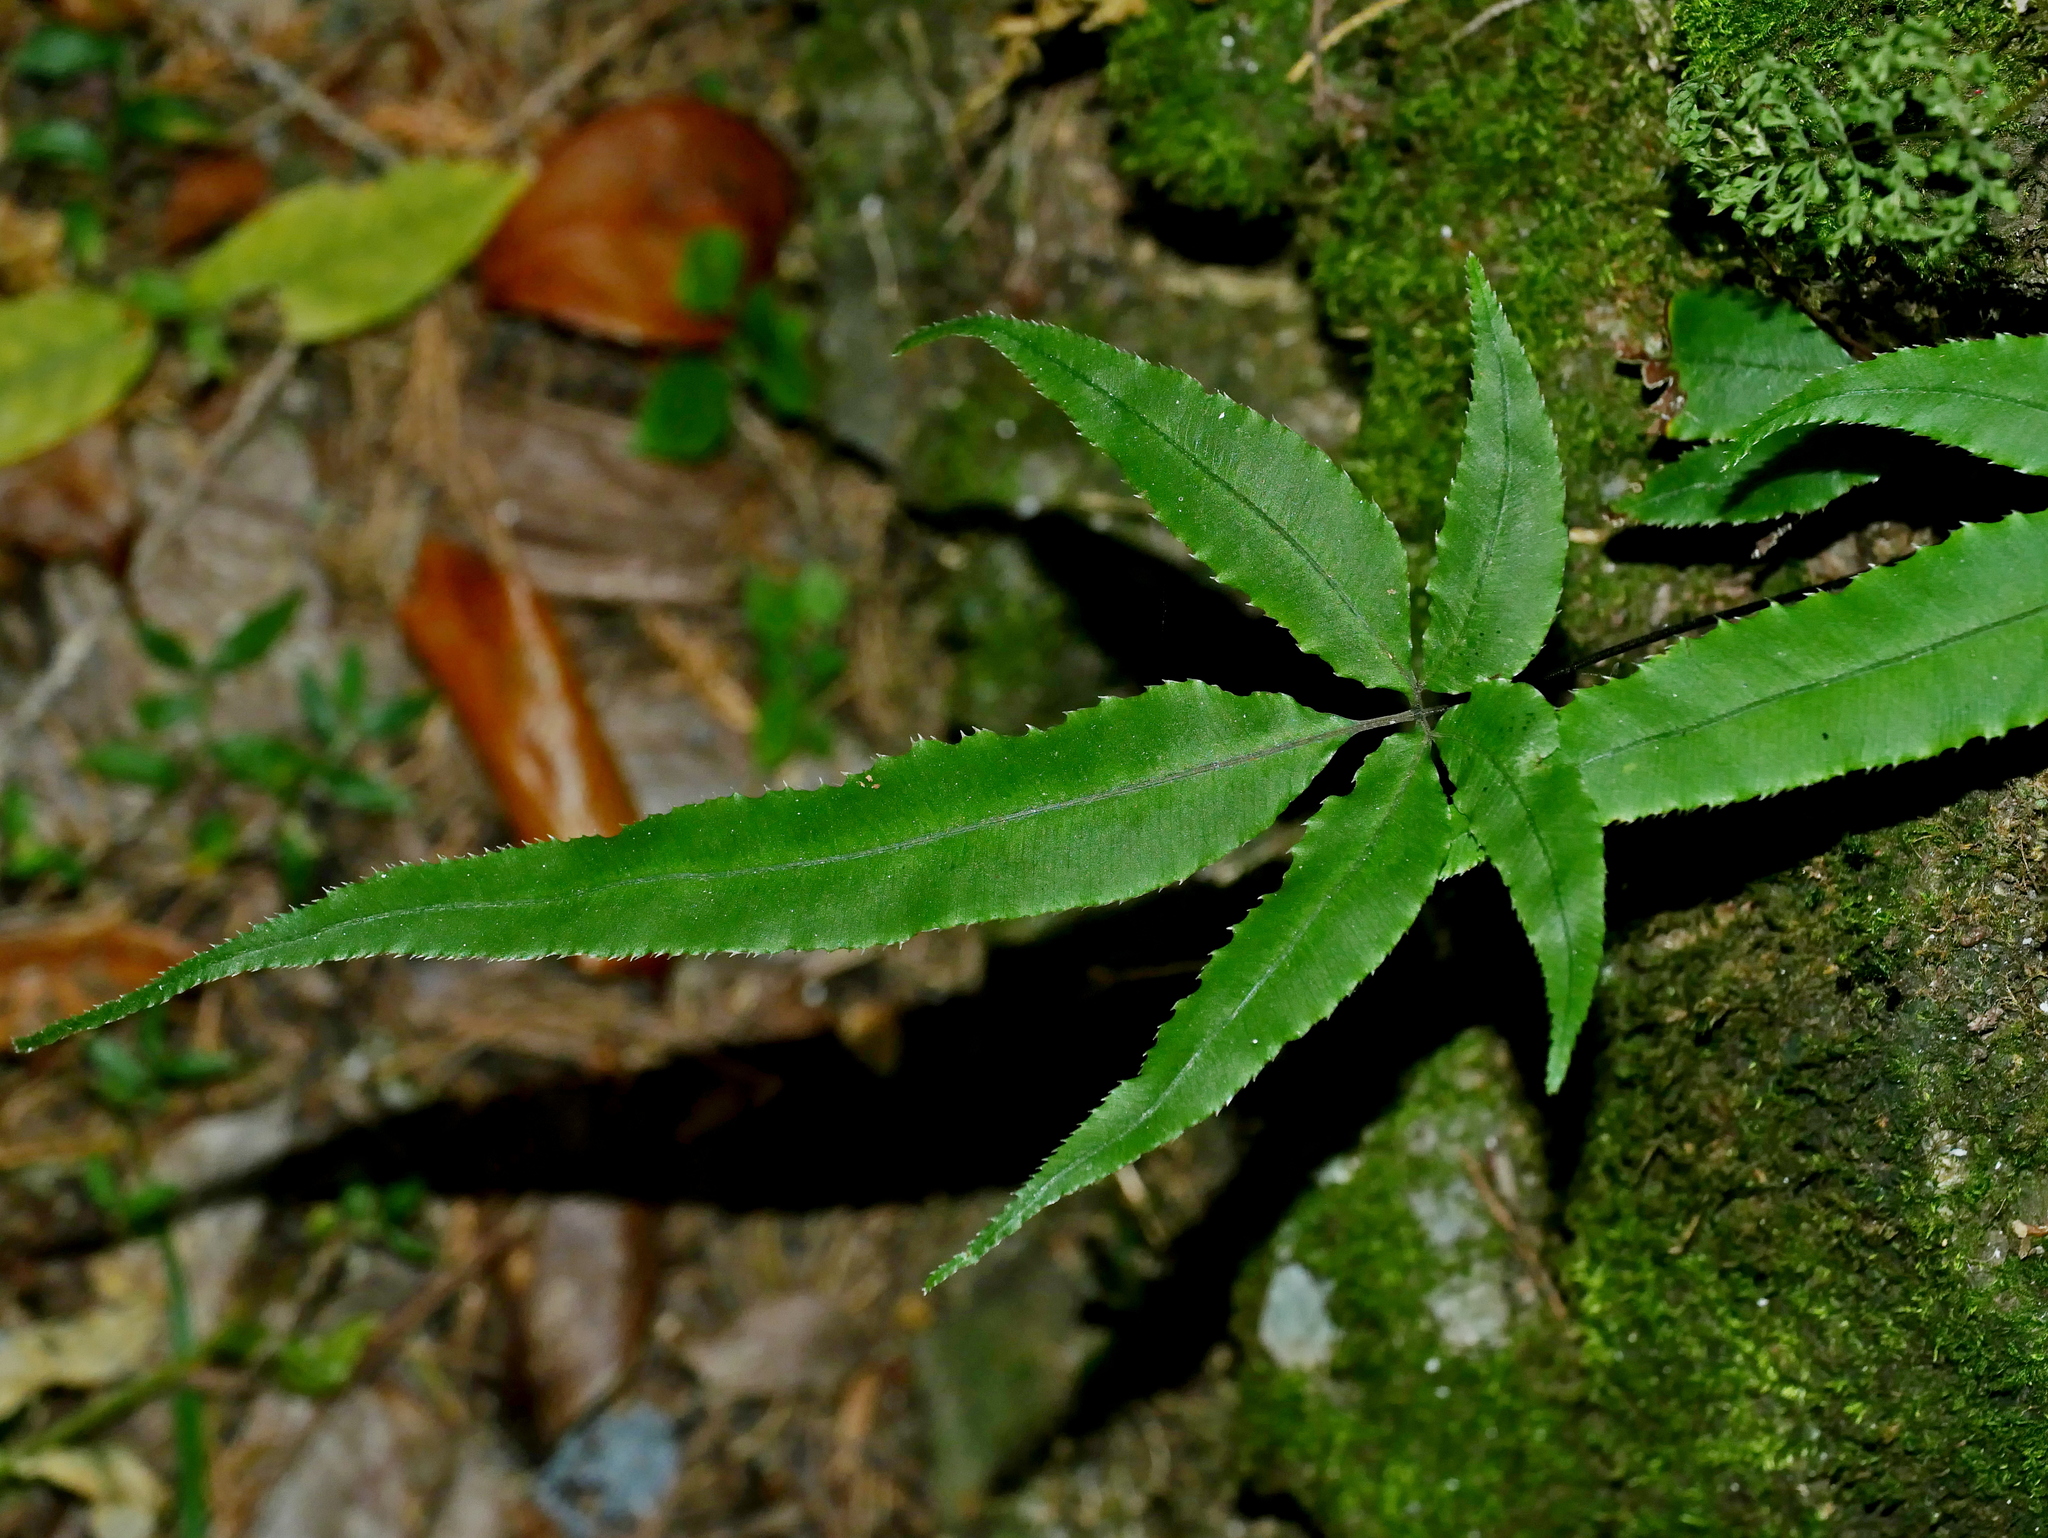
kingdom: Plantae
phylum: Tracheophyta
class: Polypodiopsida
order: Polypodiales
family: Pteridaceae
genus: Pteris
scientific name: Pteris cretica
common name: Ribbon fern
